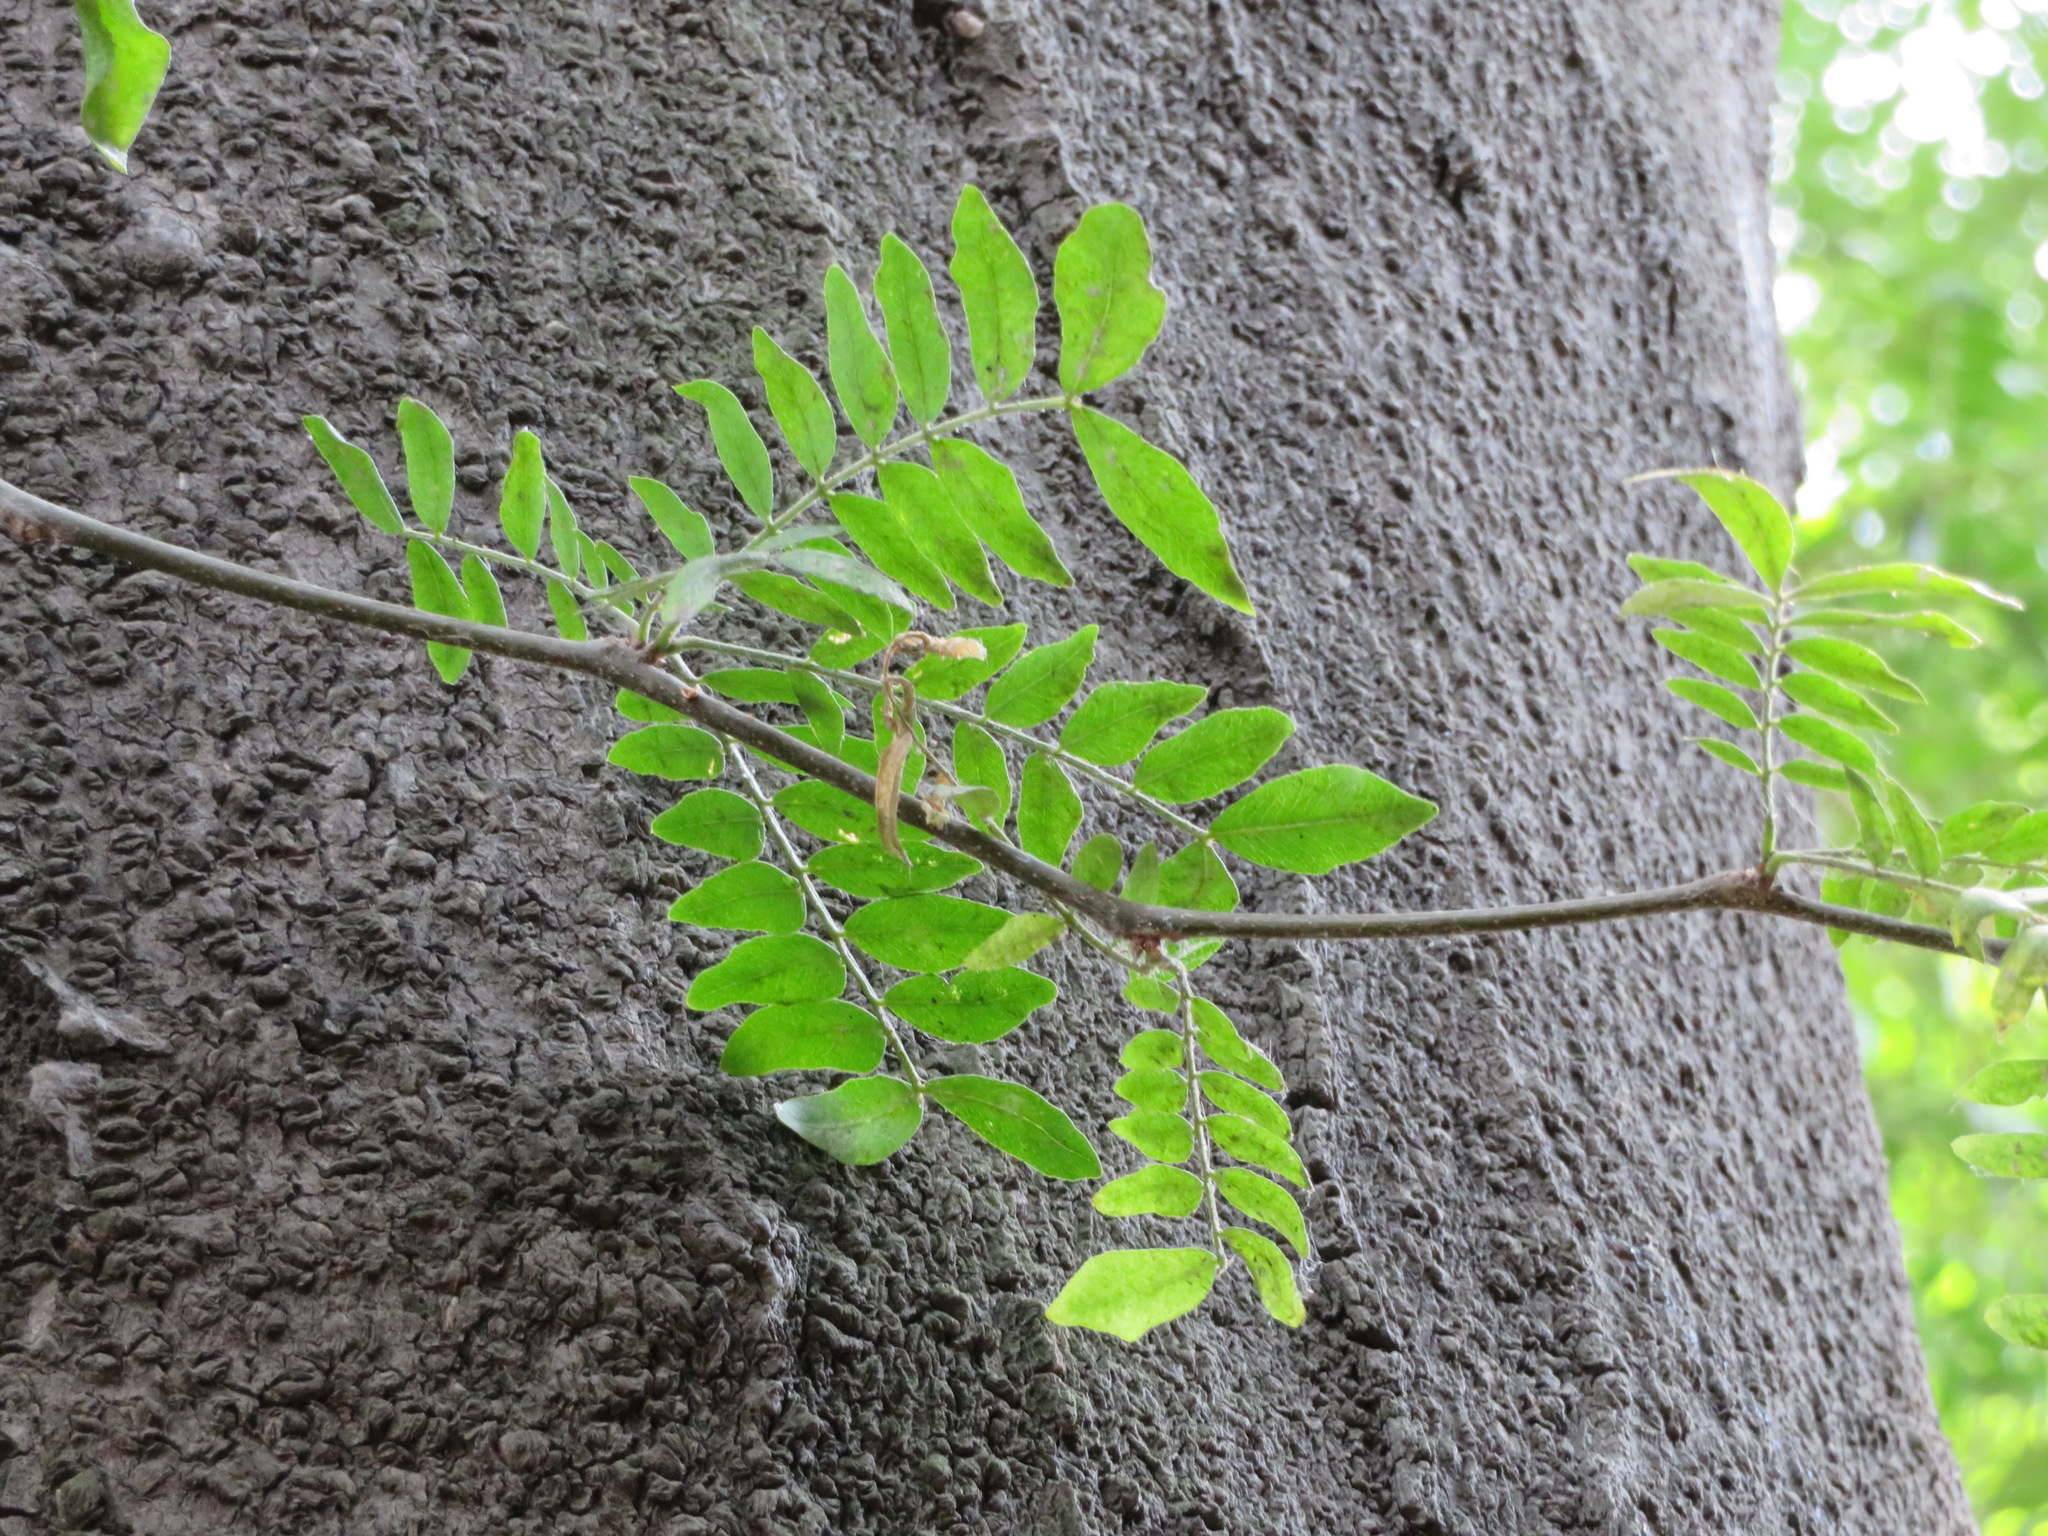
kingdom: Plantae
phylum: Tracheophyta
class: Magnoliopsida
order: Fabales
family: Fabaceae
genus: Gleditsia
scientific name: Gleditsia sinensis
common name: Chinese honey-locust
